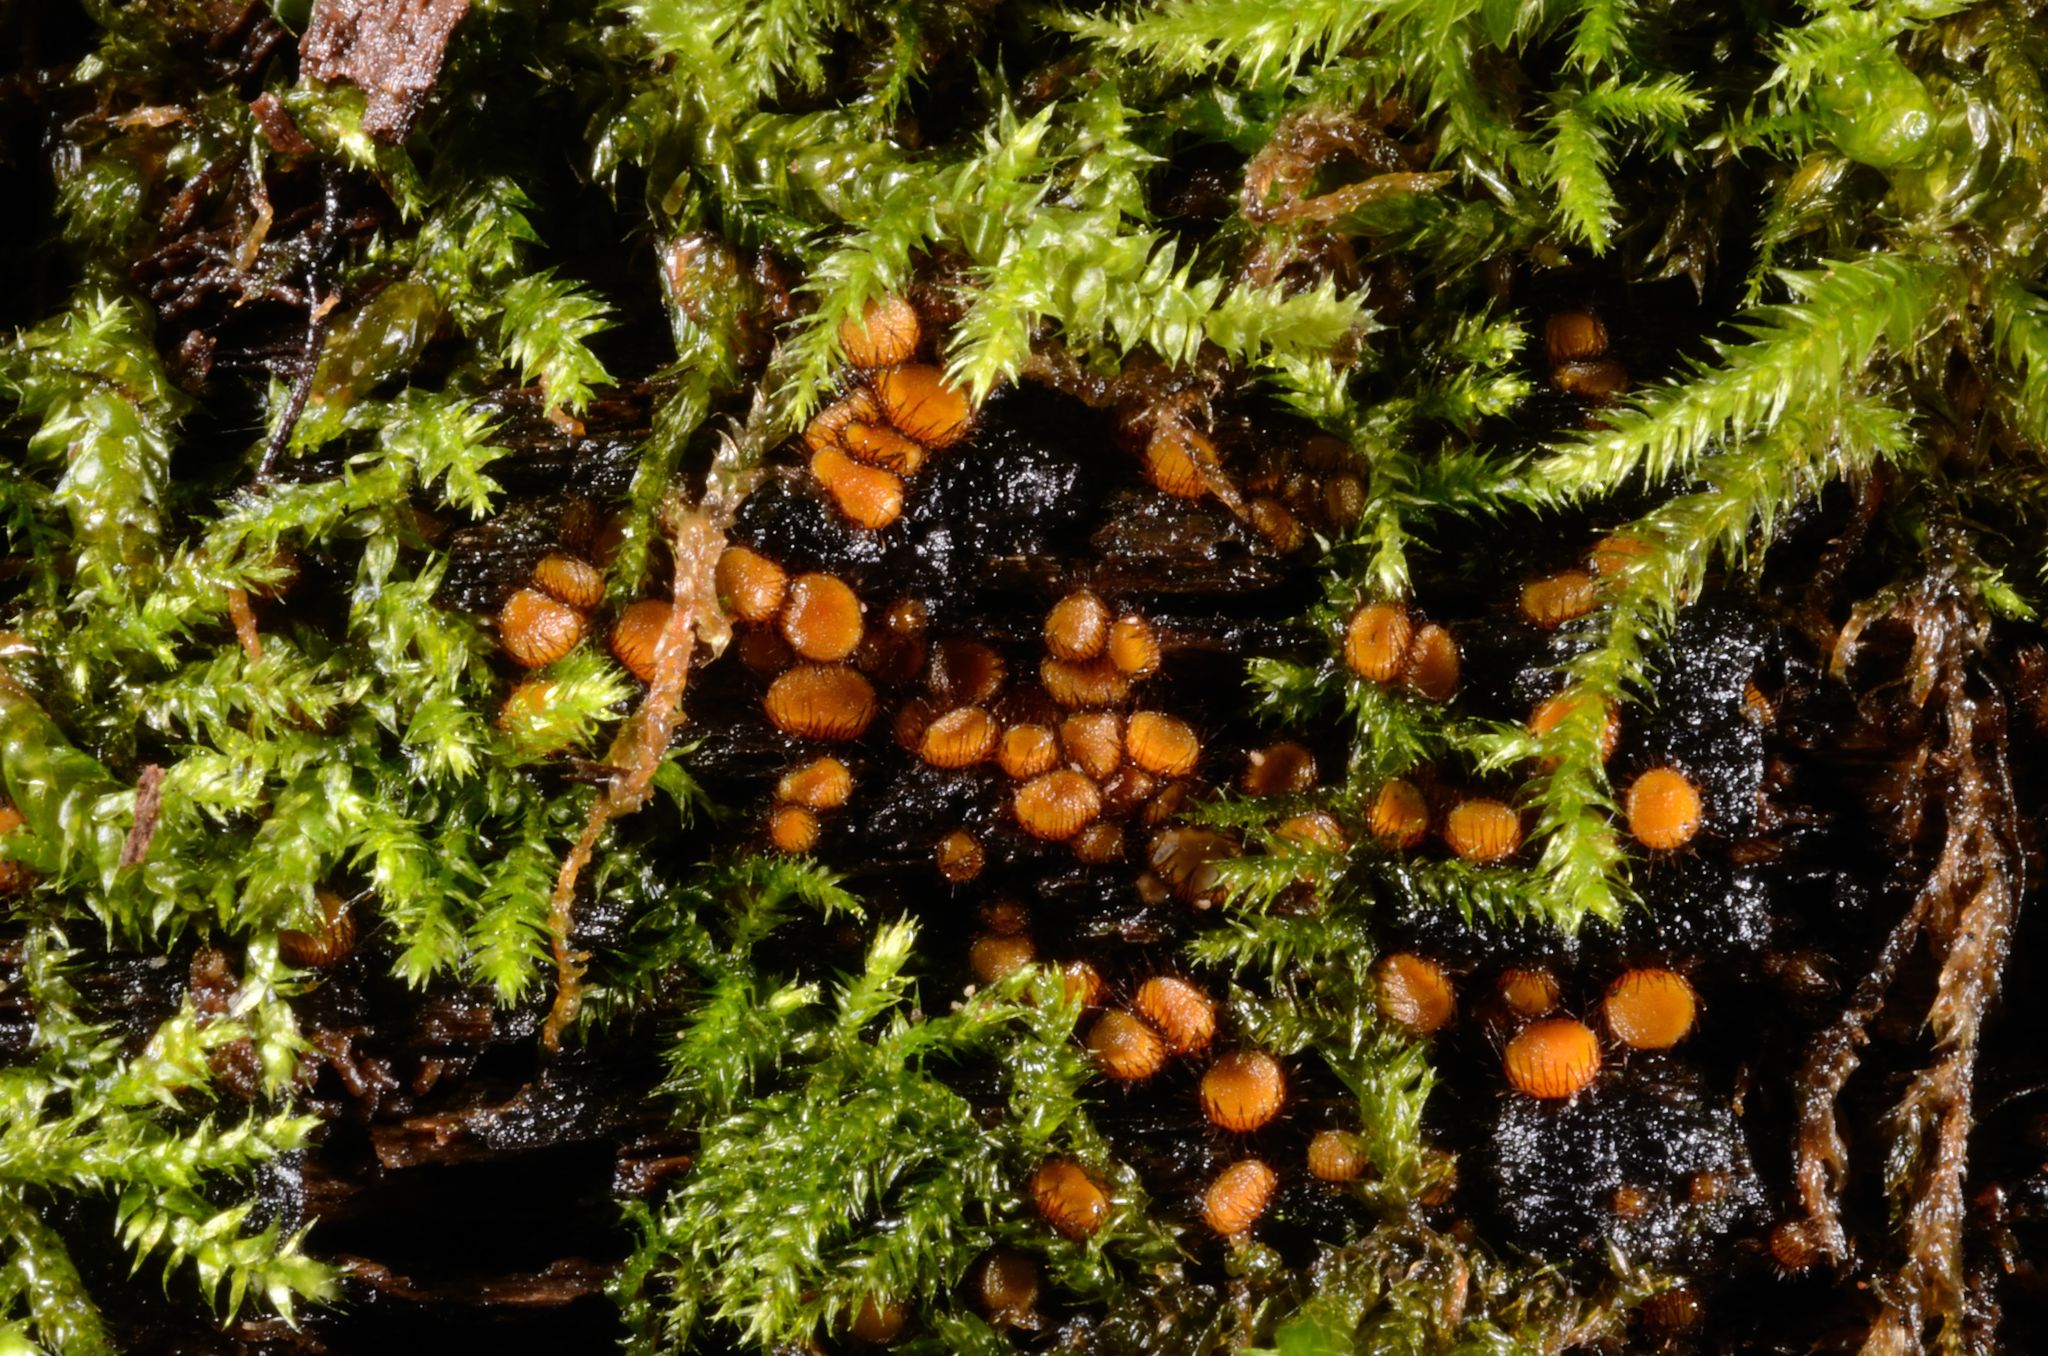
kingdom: Fungi
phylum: Ascomycota
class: Pezizomycetes
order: Pezizales
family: Pyronemataceae
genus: Scutellinia
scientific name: Scutellinia setosa
